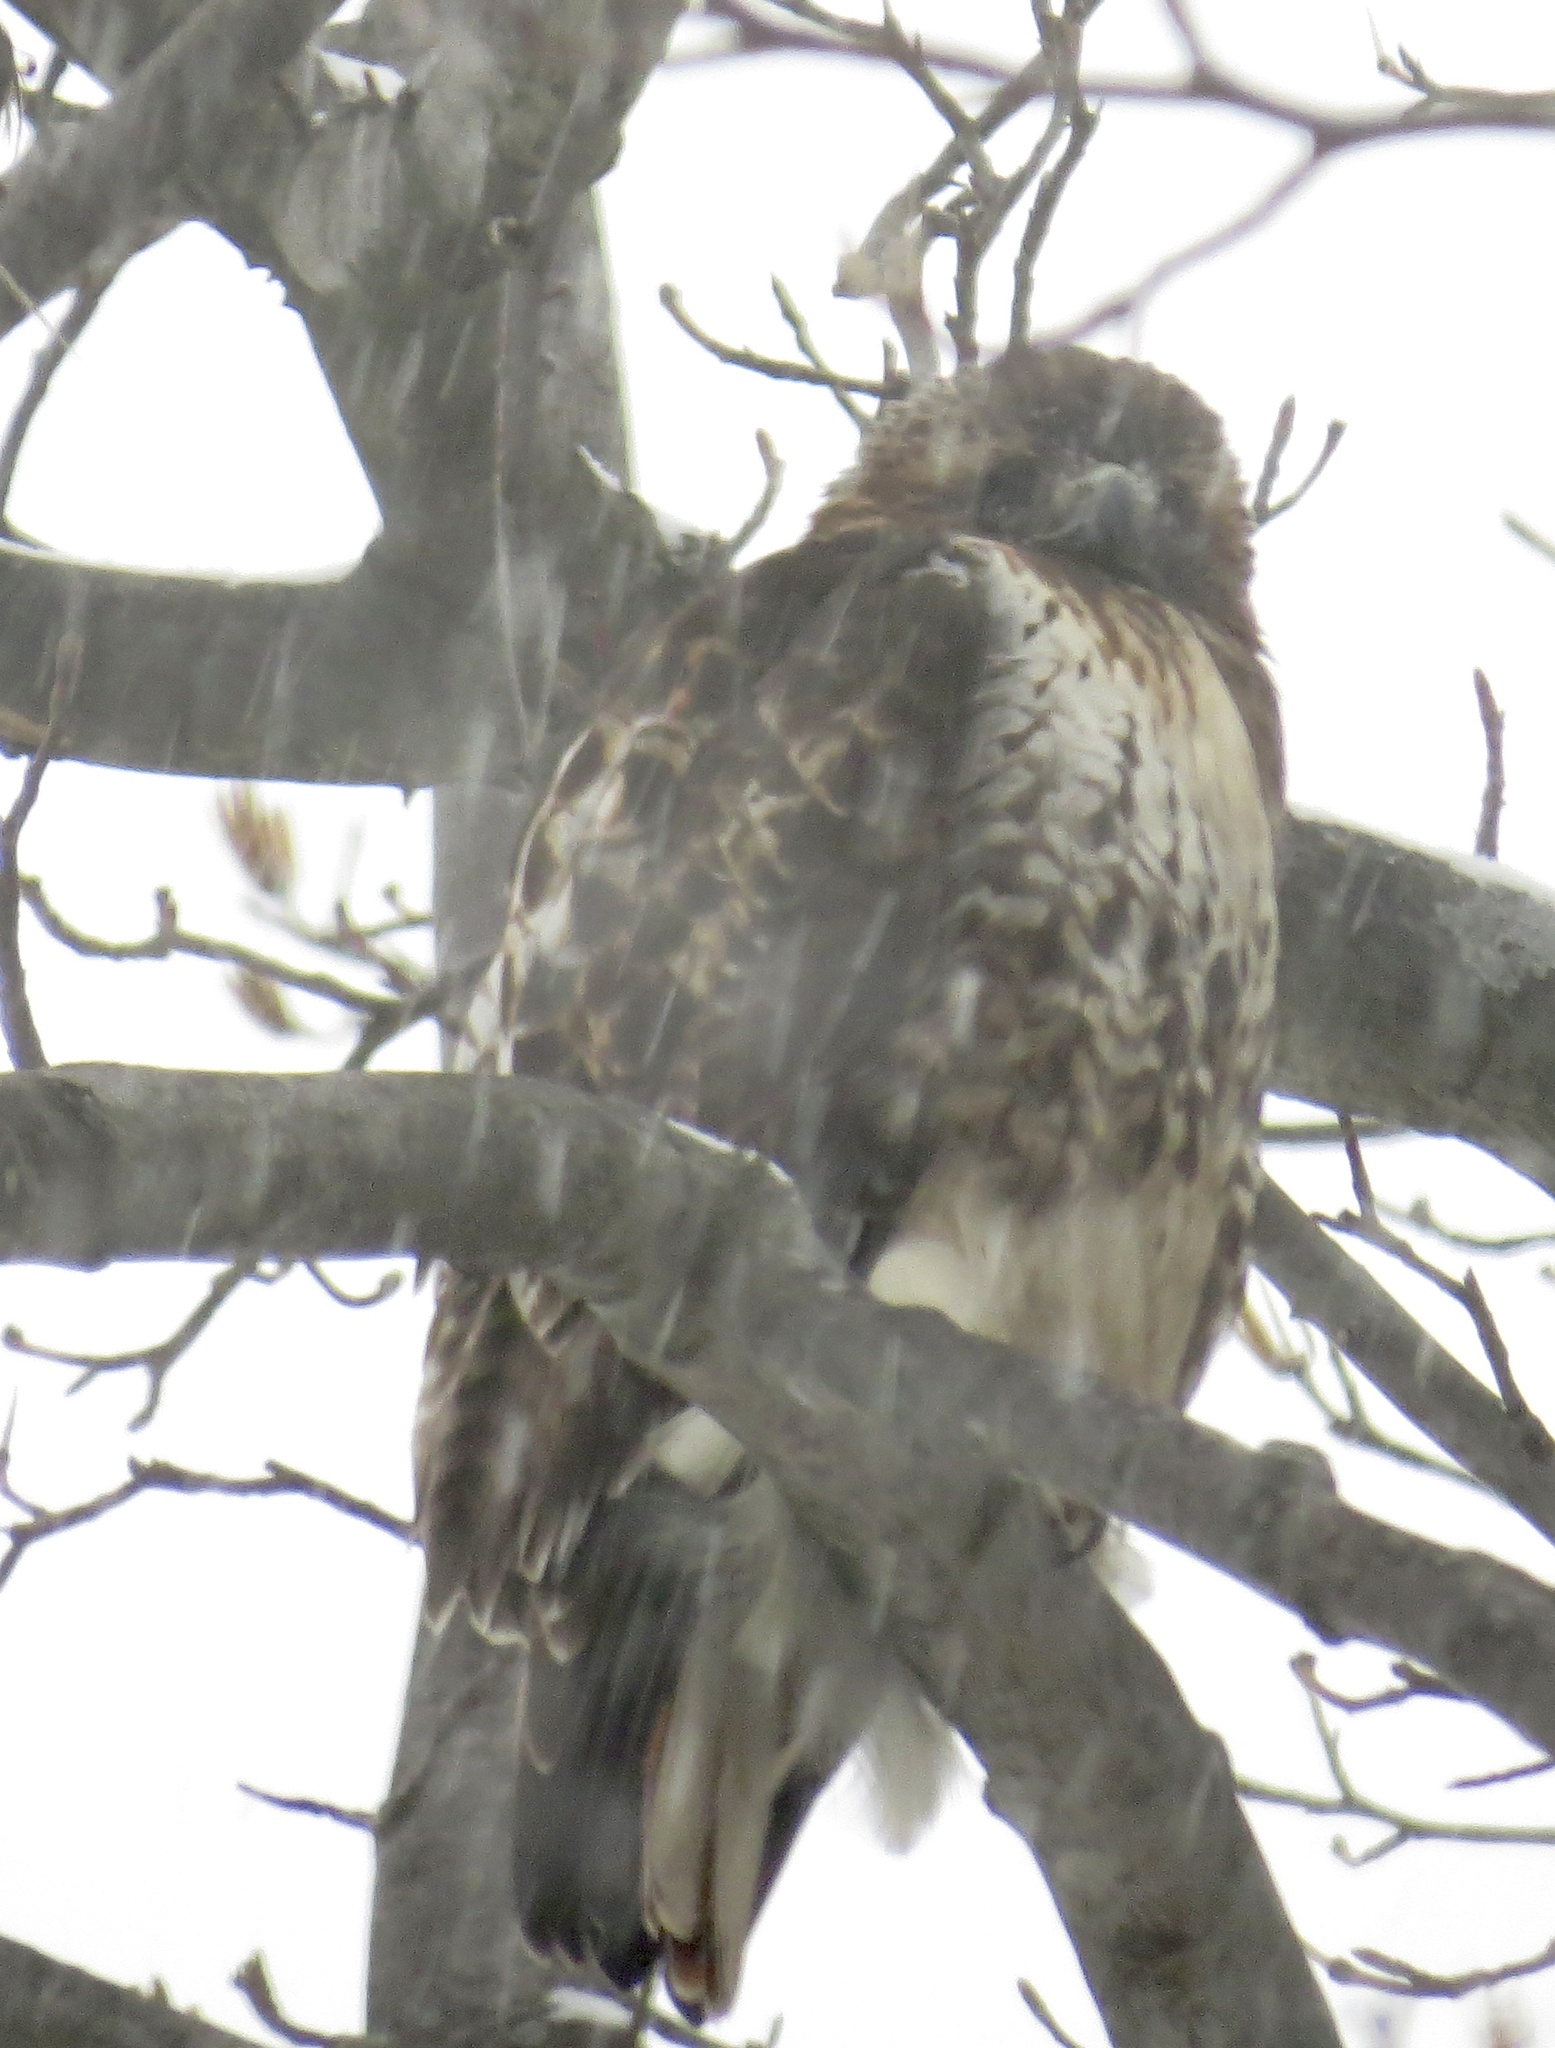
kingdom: Animalia
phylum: Chordata
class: Aves
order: Accipitriformes
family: Accipitridae
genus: Buteo
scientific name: Buteo jamaicensis
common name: Red-tailed hawk
